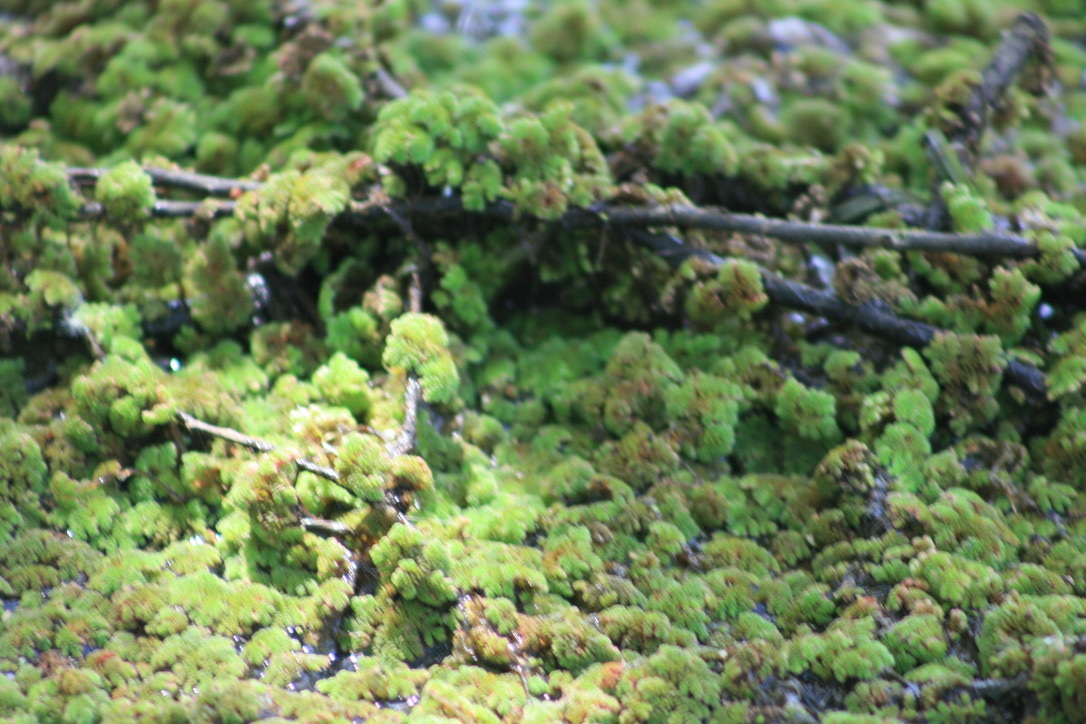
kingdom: Plantae
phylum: Tracheophyta
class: Polypodiopsida
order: Salviniales
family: Salviniaceae
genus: Azolla
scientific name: Azolla filiculoides
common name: Water fern
